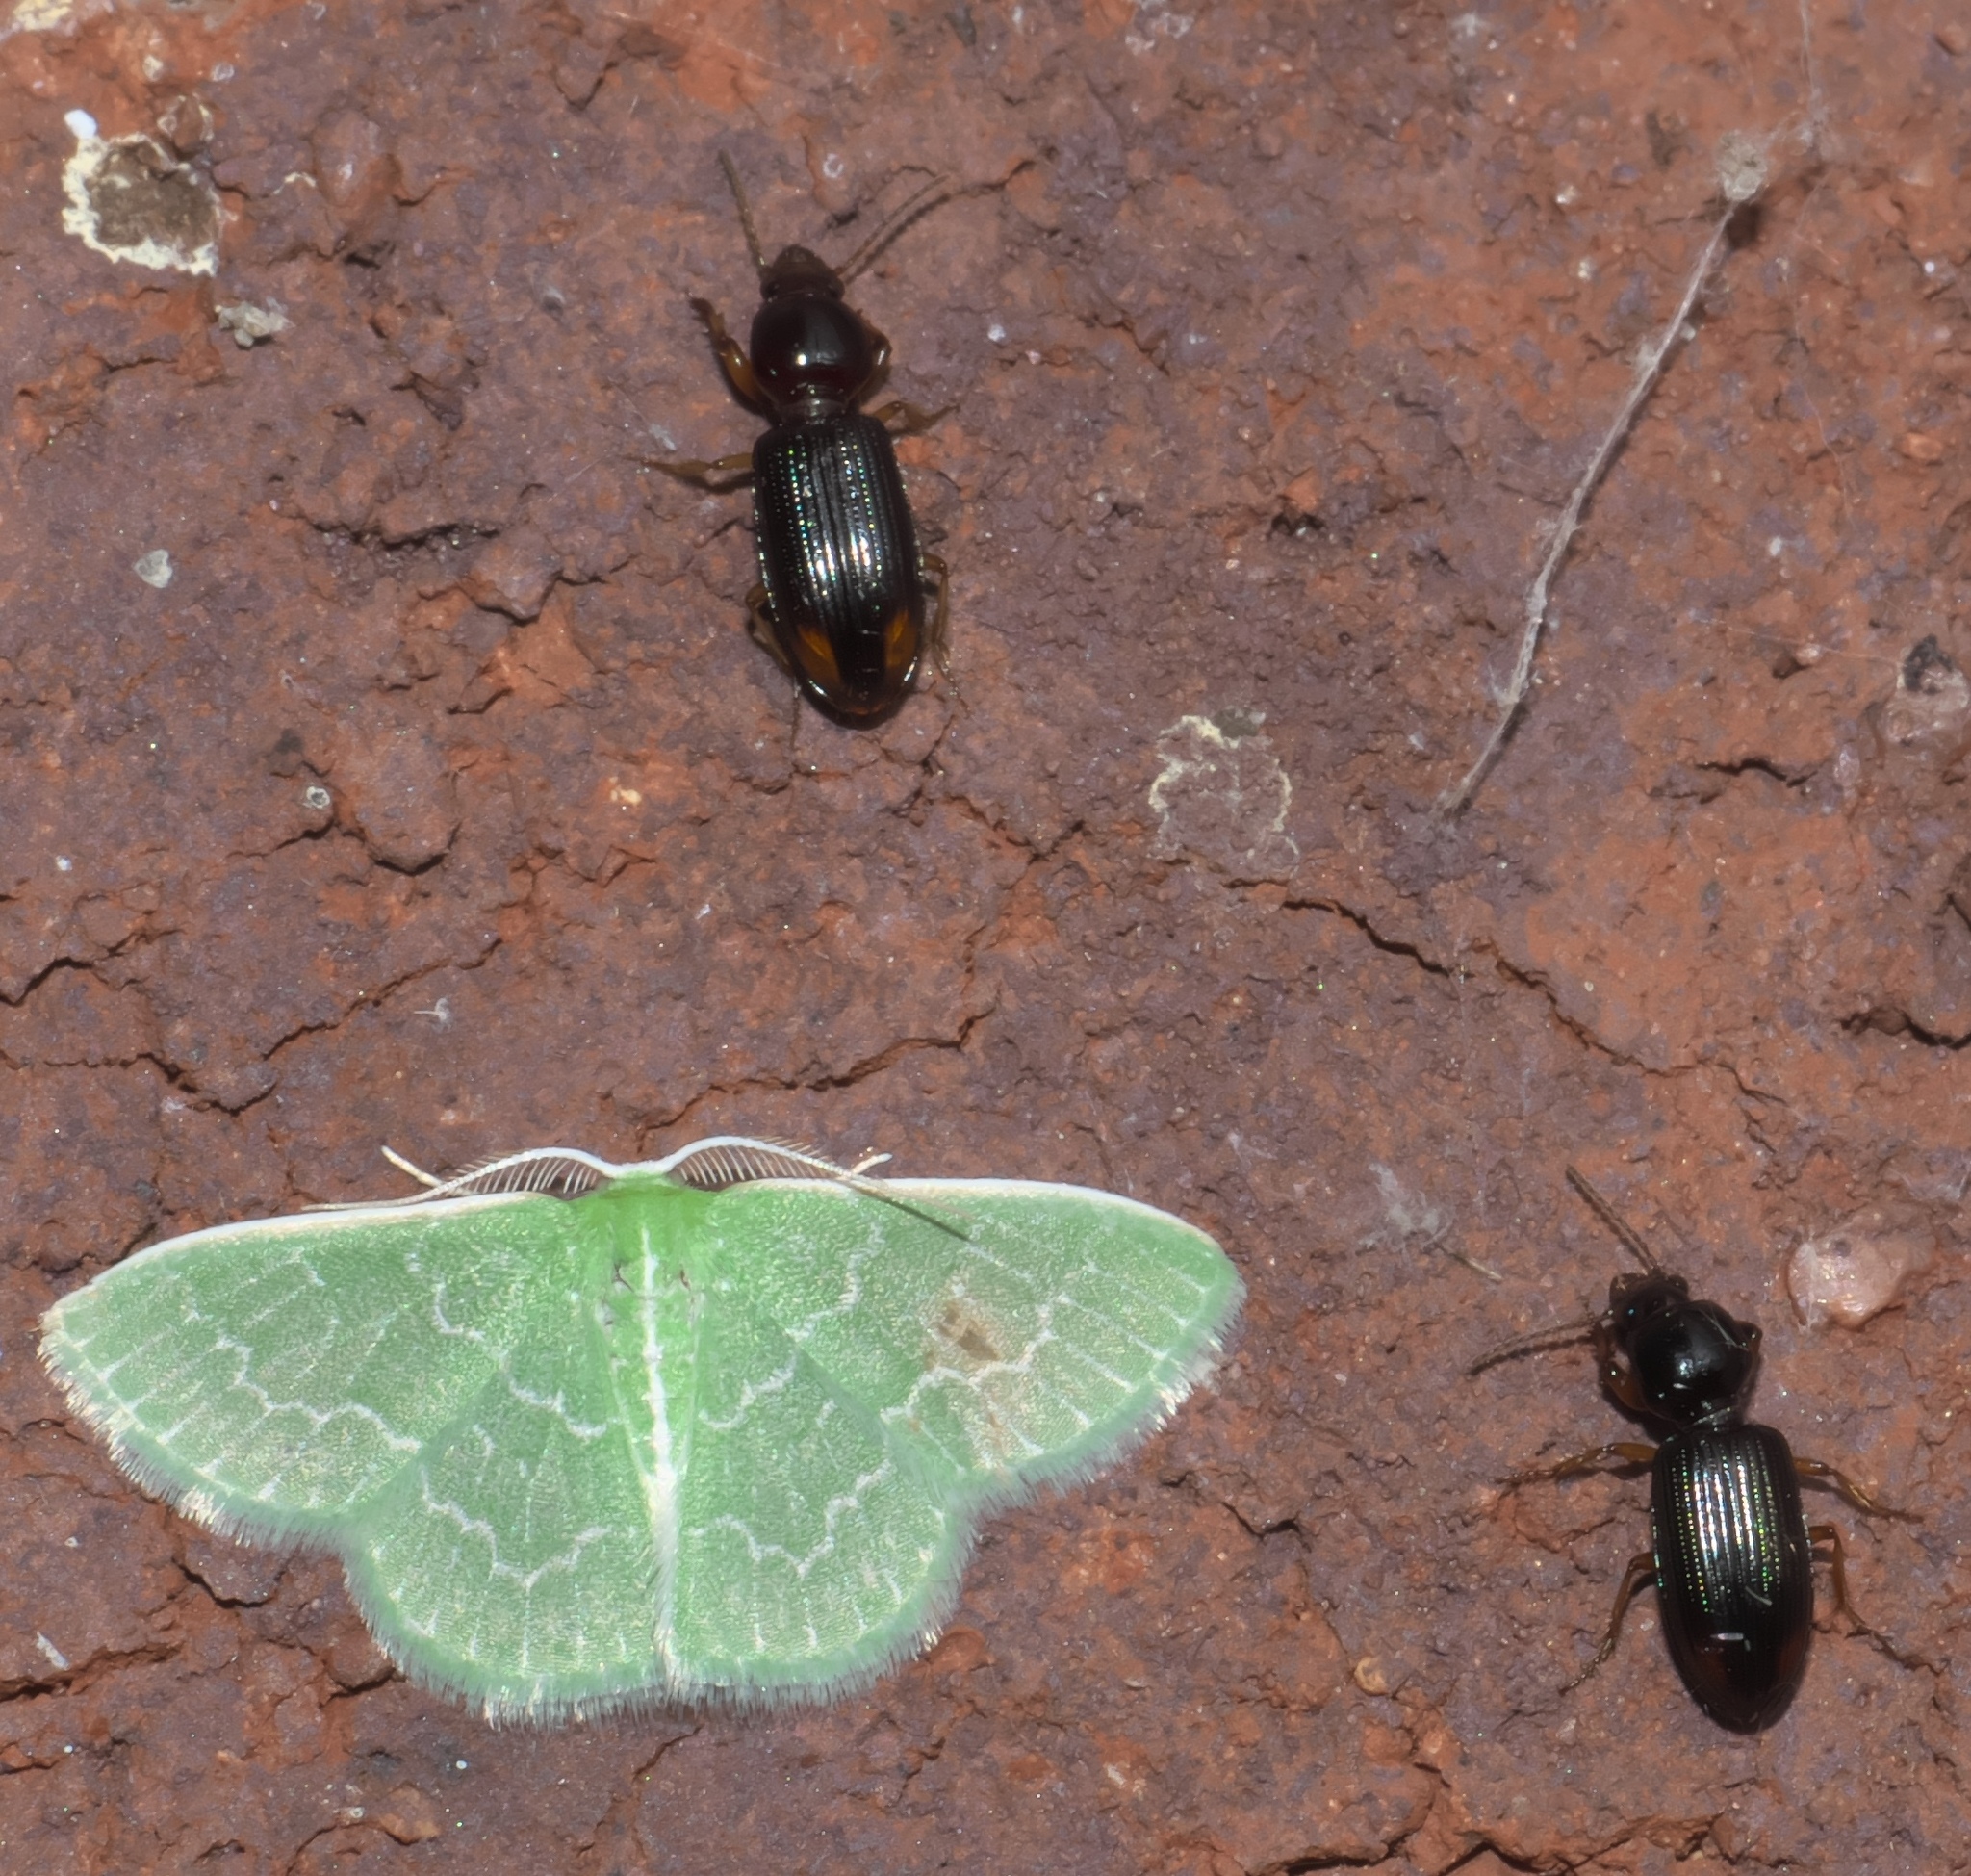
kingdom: Animalia
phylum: Arthropoda
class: Insecta
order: Lepidoptera
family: Geometridae
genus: Synchlora
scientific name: Synchlora frondaria
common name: Southern emerald
